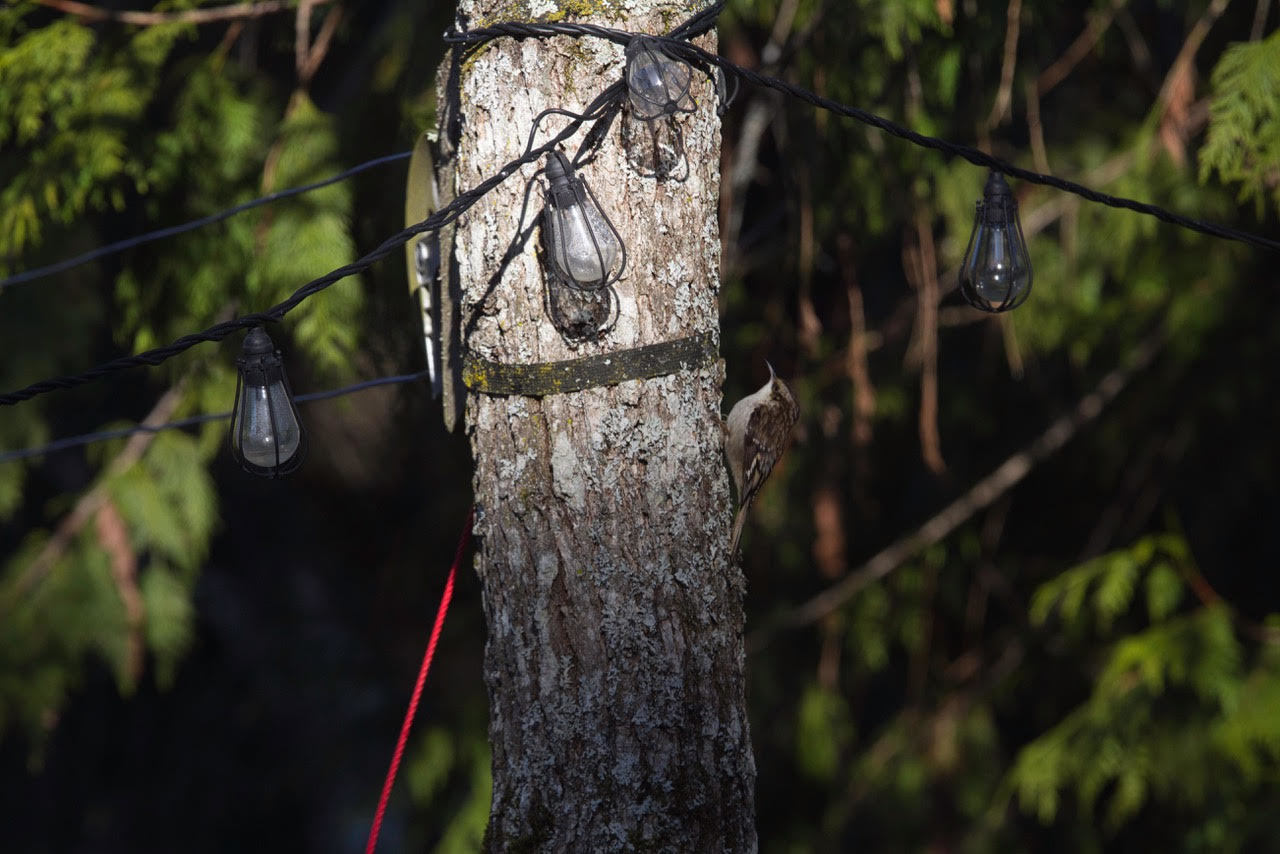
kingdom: Animalia
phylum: Chordata
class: Aves
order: Passeriformes
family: Certhiidae
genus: Certhia
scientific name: Certhia americana
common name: Brown creeper
